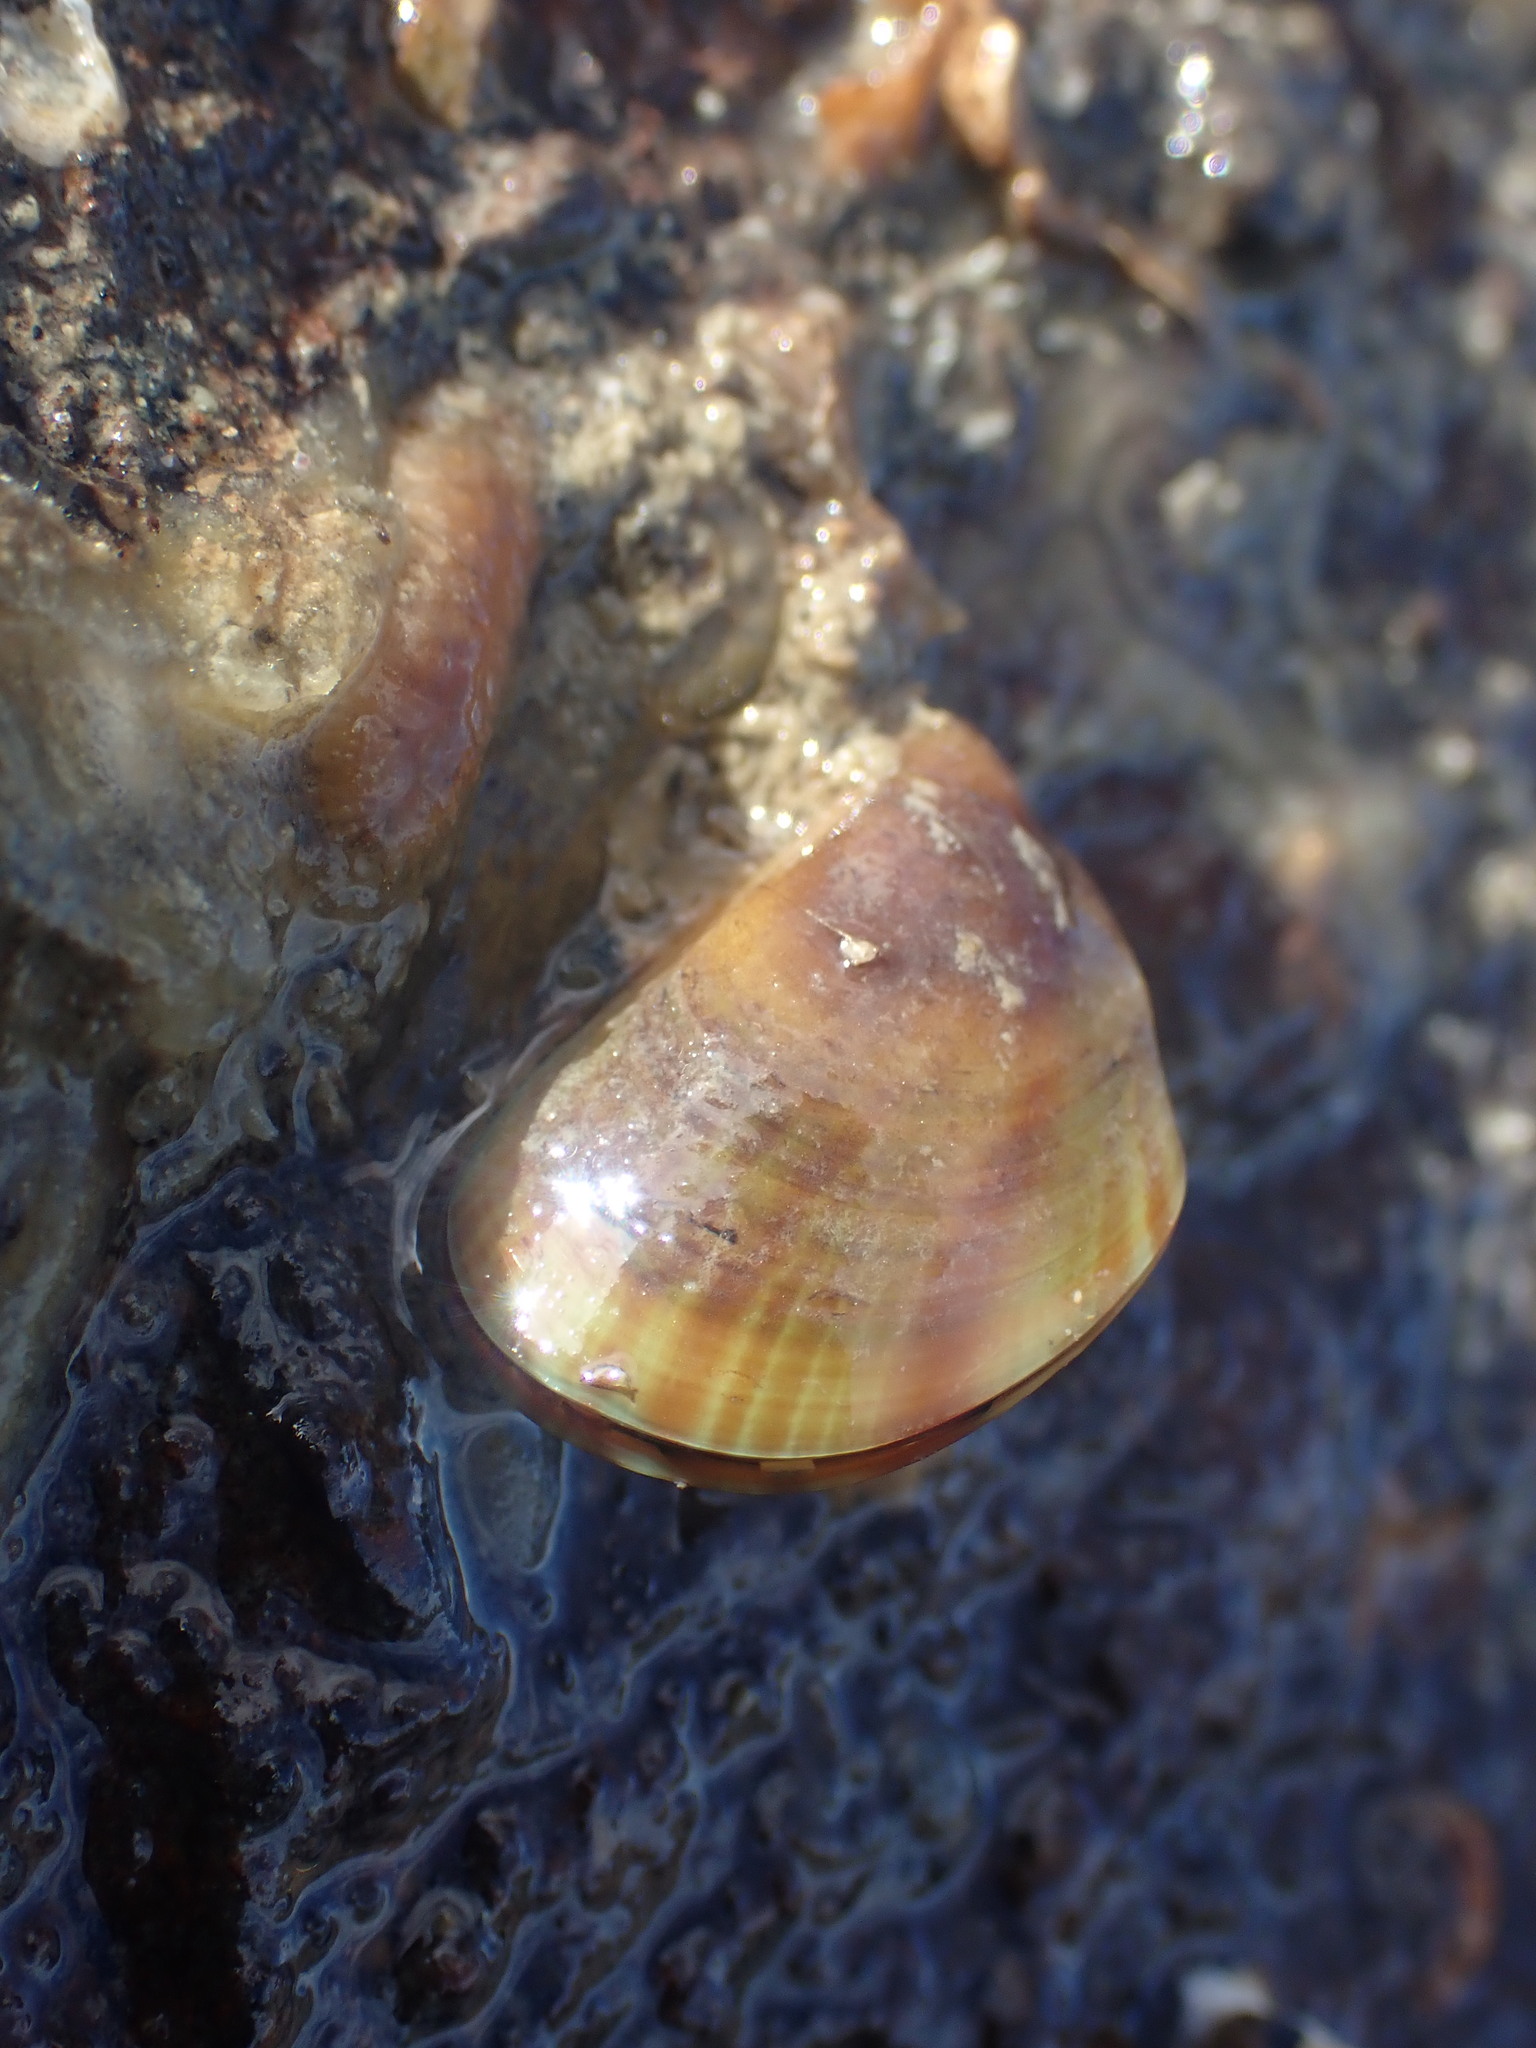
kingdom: Animalia
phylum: Mollusca
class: Bivalvia
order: Mytilida
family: Mytilidae
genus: Perna
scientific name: Perna canaliculus
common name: New zealand greenshelltm
